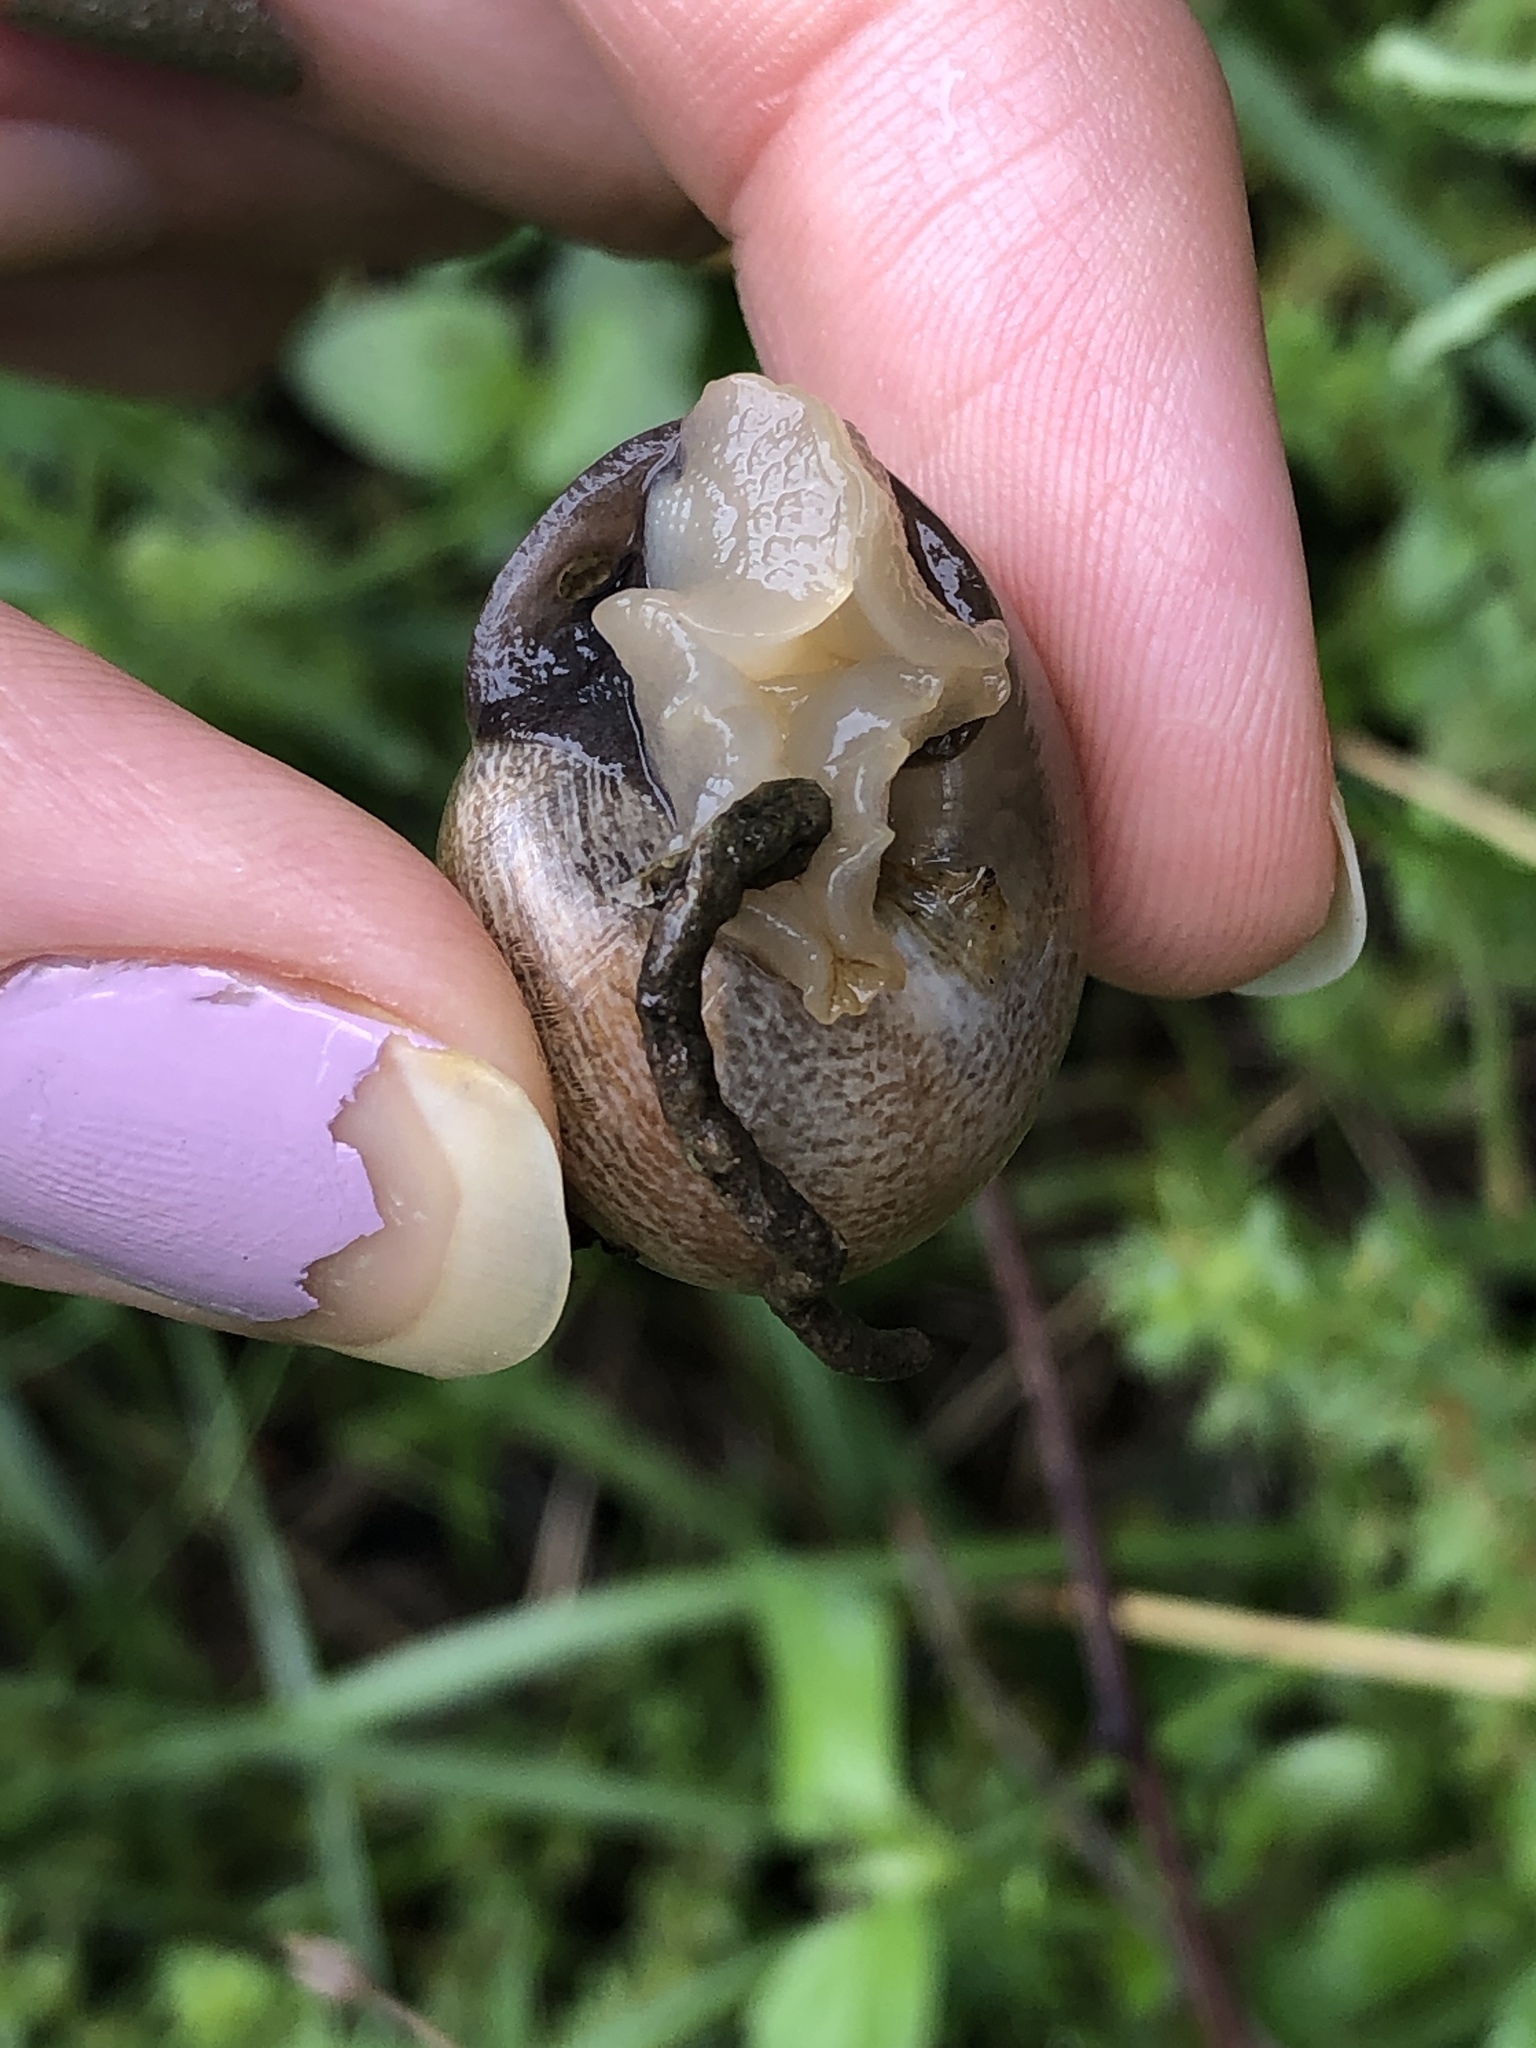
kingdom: Animalia
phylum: Mollusca
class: Gastropoda
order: Stylommatophora
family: Helicidae
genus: Otala
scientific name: Otala lactea
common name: Milk snail
